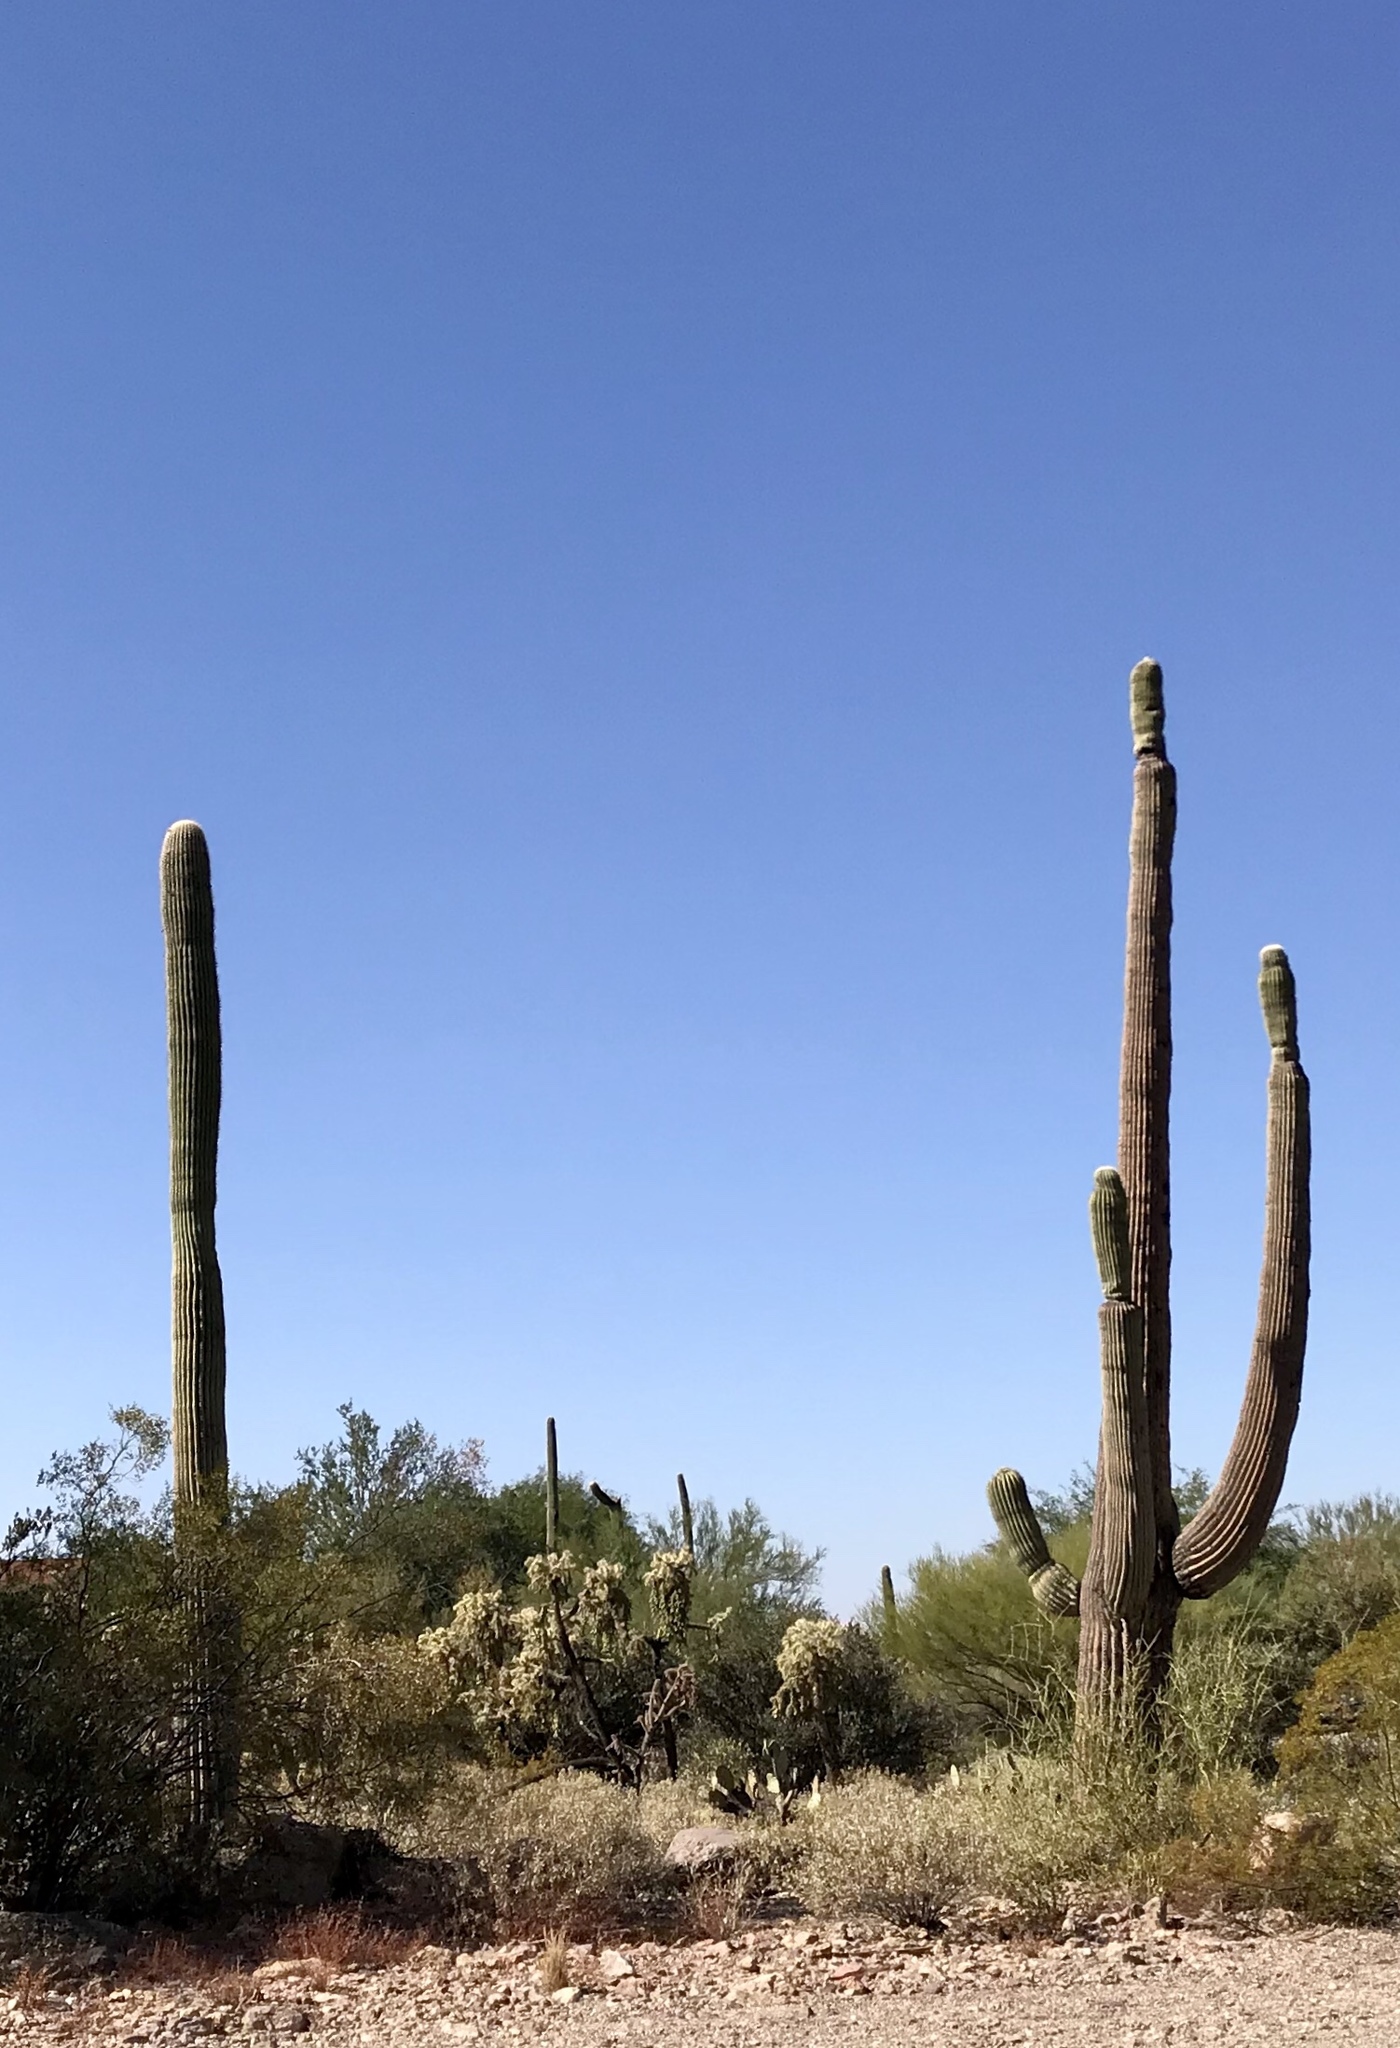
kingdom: Plantae
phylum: Tracheophyta
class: Magnoliopsida
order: Caryophyllales
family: Cactaceae
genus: Carnegiea
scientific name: Carnegiea gigantea
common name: Saguaro
